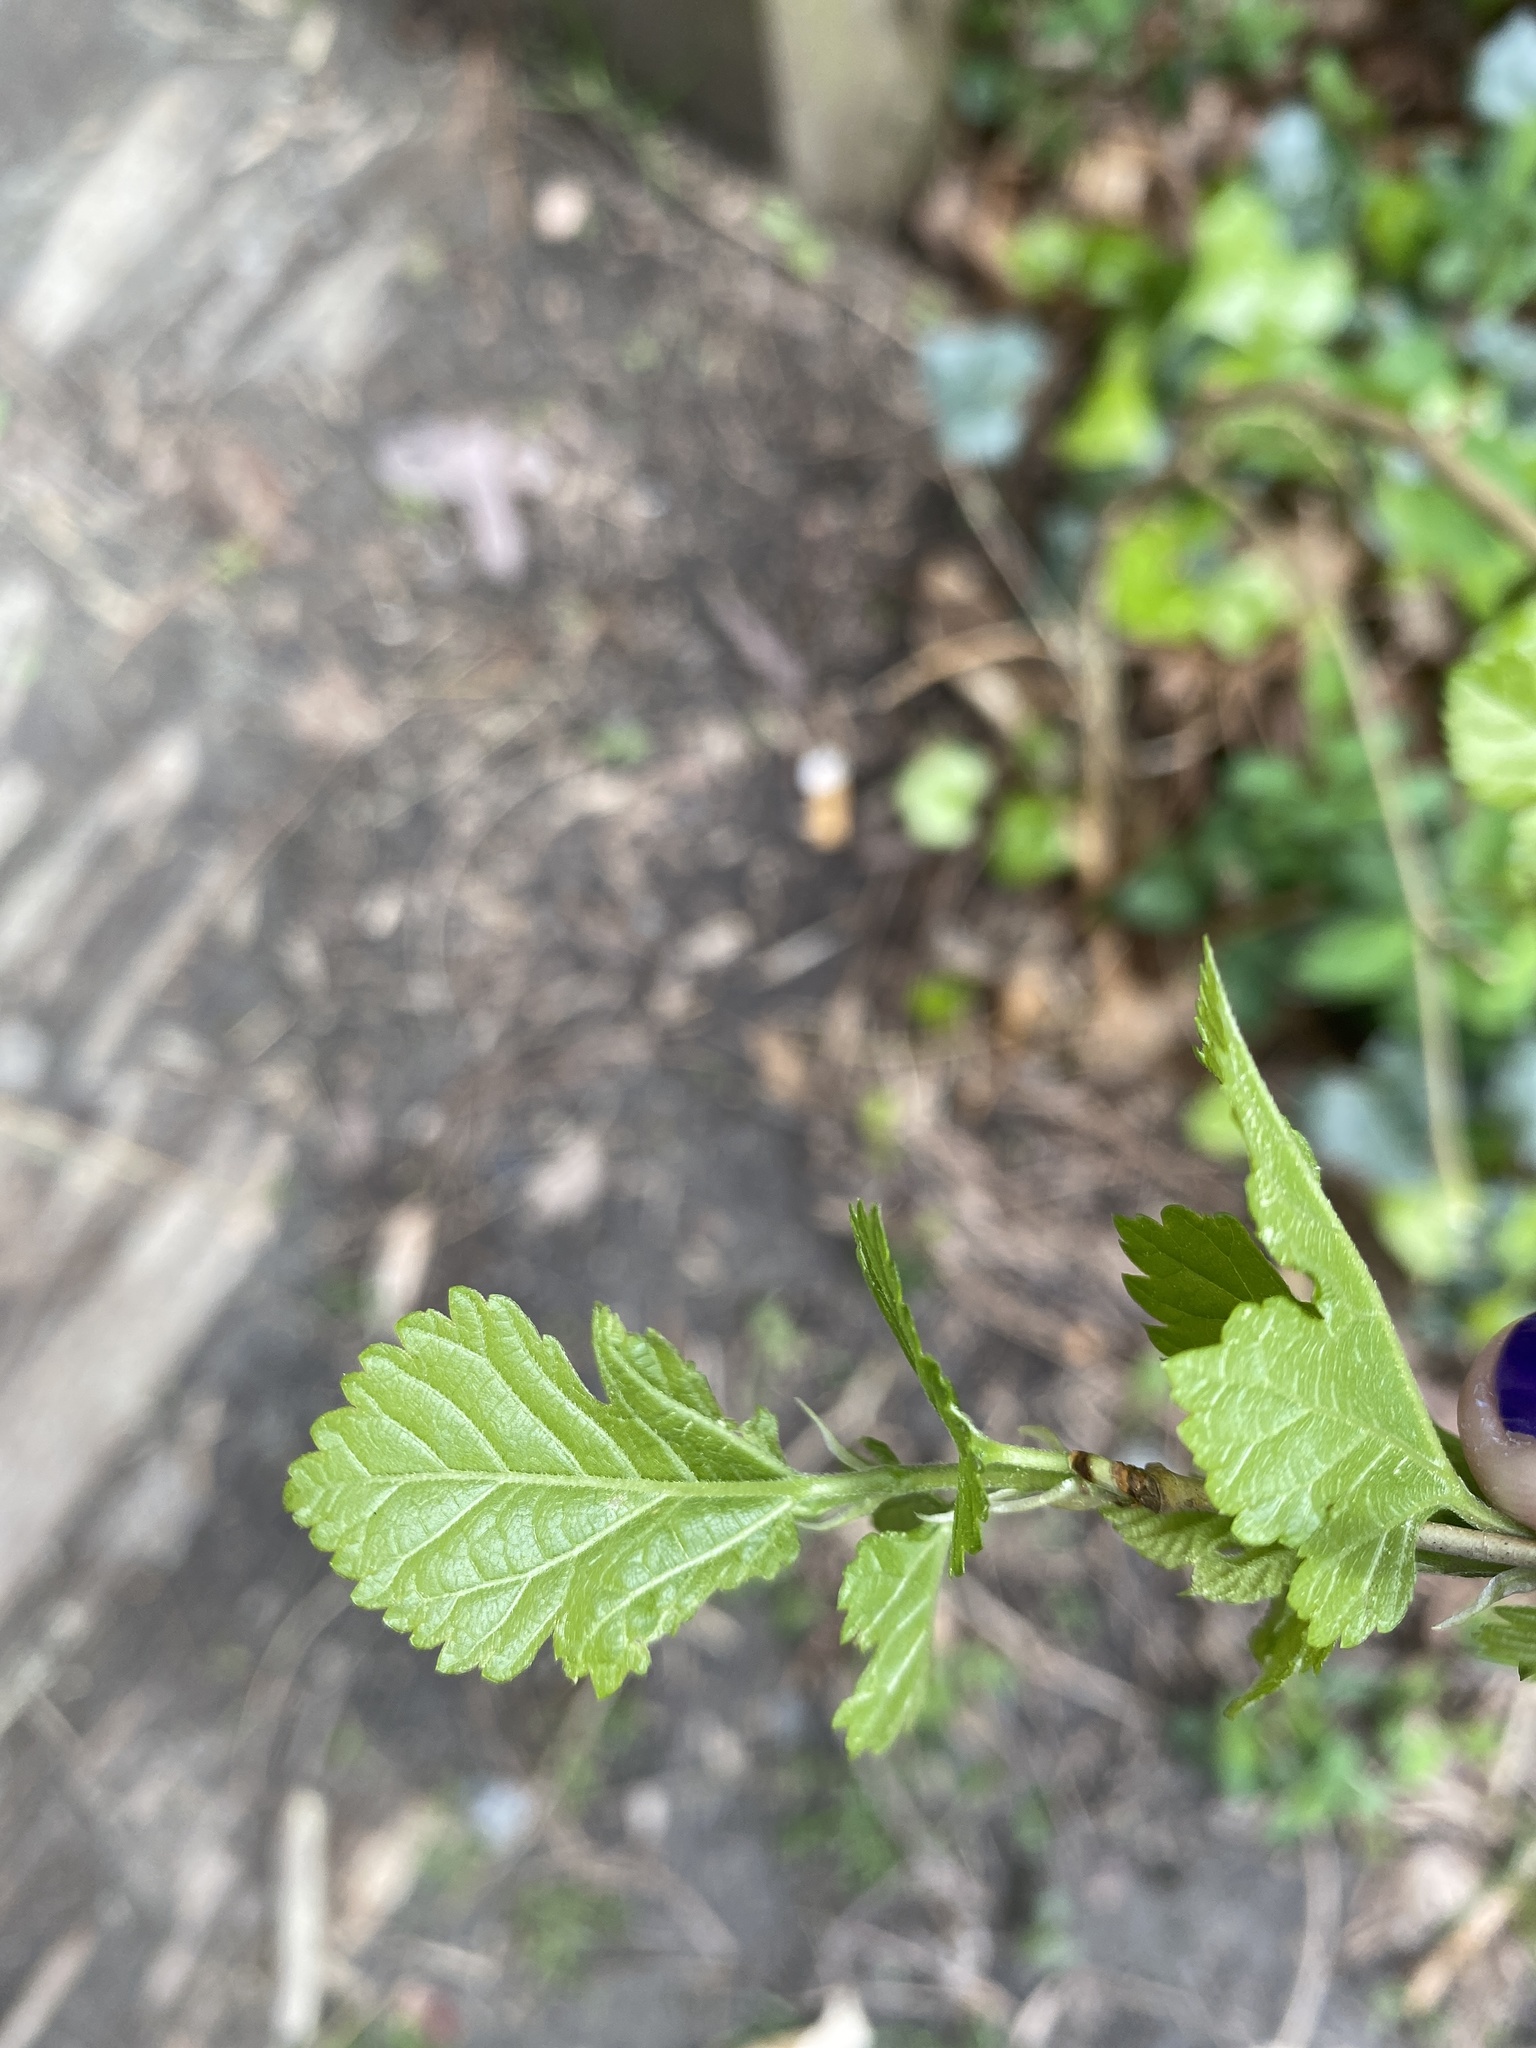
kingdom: Plantae
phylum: Tracheophyta
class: Magnoliopsida
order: Rosales
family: Moraceae
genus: Morus
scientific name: Morus alba
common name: White mulberry
